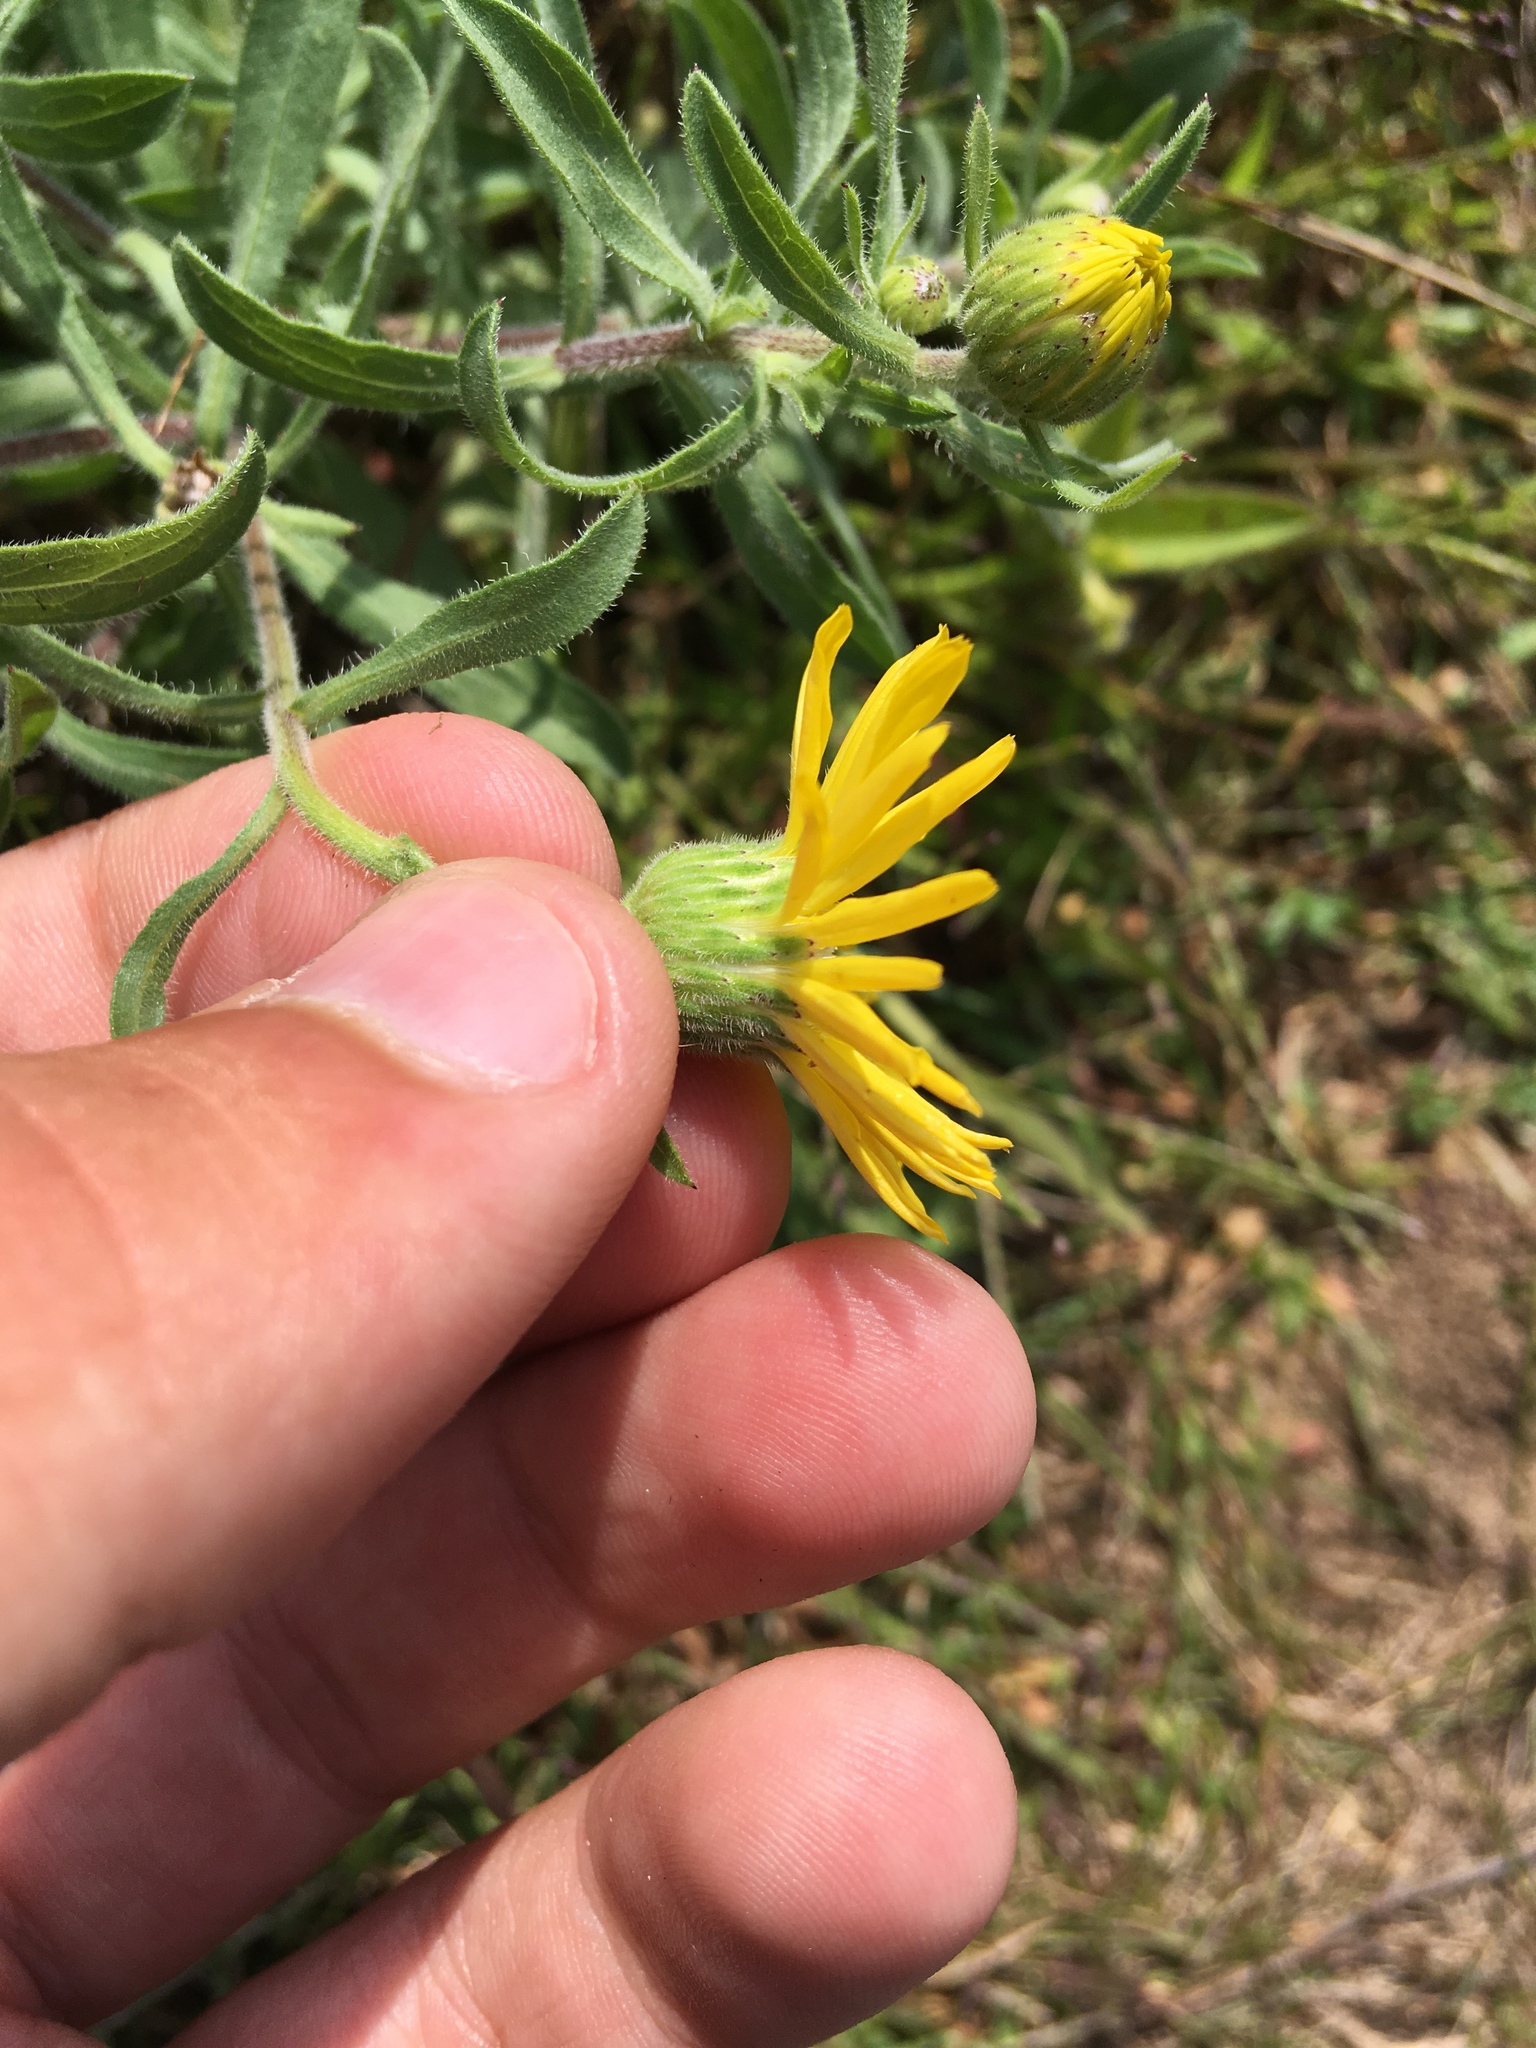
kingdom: Plantae
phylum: Tracheophyta
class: Magnoliopsida
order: Asterales
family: Asteraceae
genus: Heterotheca
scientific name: Heterotheca villosa
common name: Hairy false goldenaster
